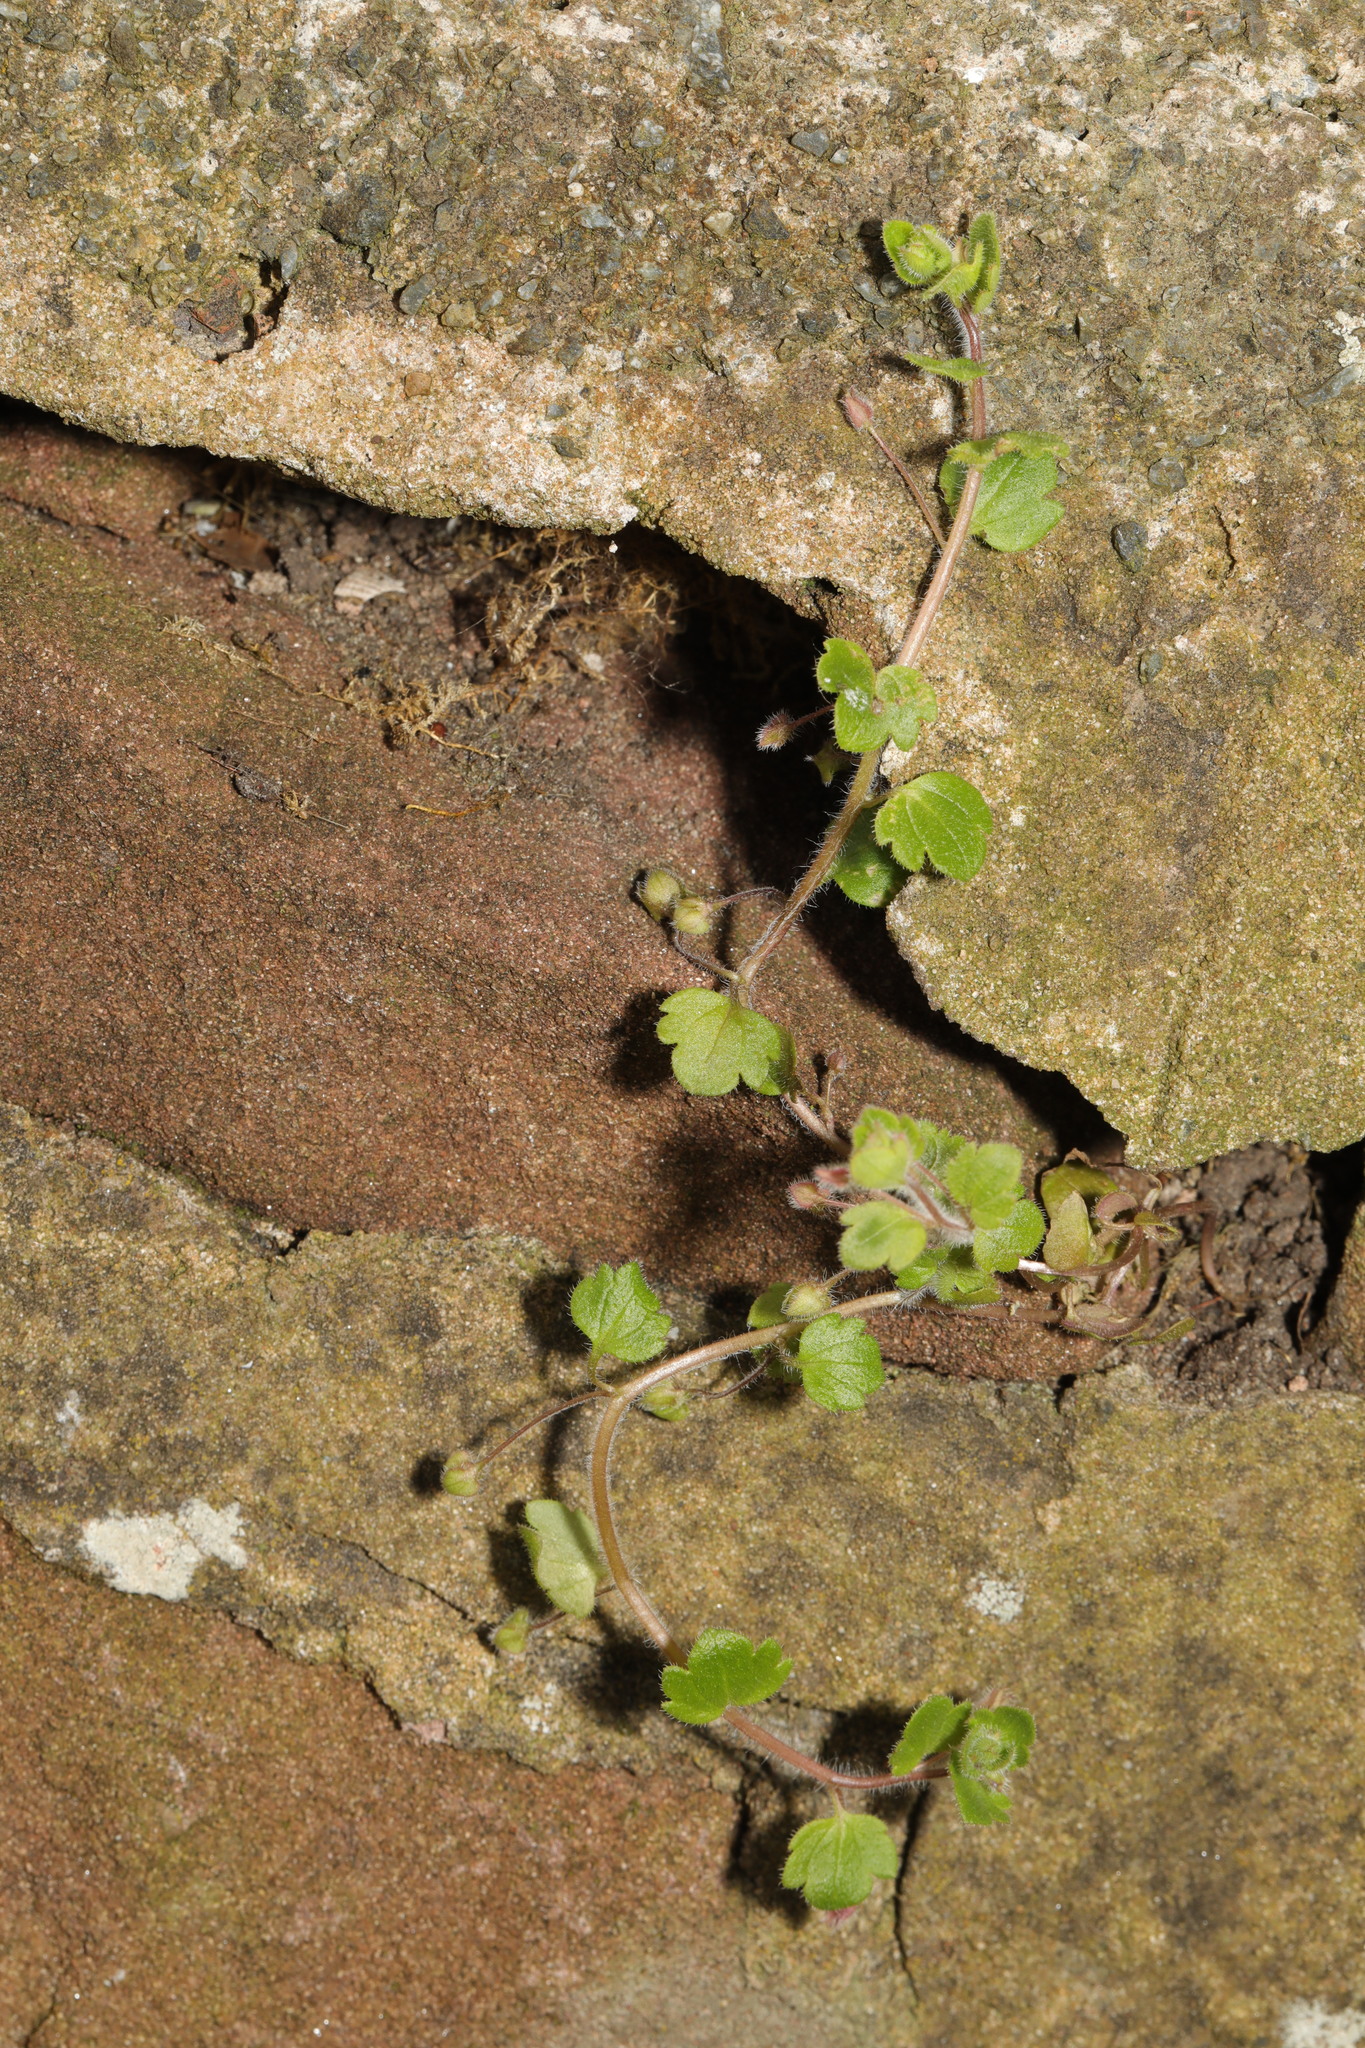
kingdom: Plantae
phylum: Tracheophyta
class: Magnoliopsida
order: Lamiales
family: Plantaginaceae
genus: Veronica
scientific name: Veronica sublobata
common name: False ivy-leaved speedwell
